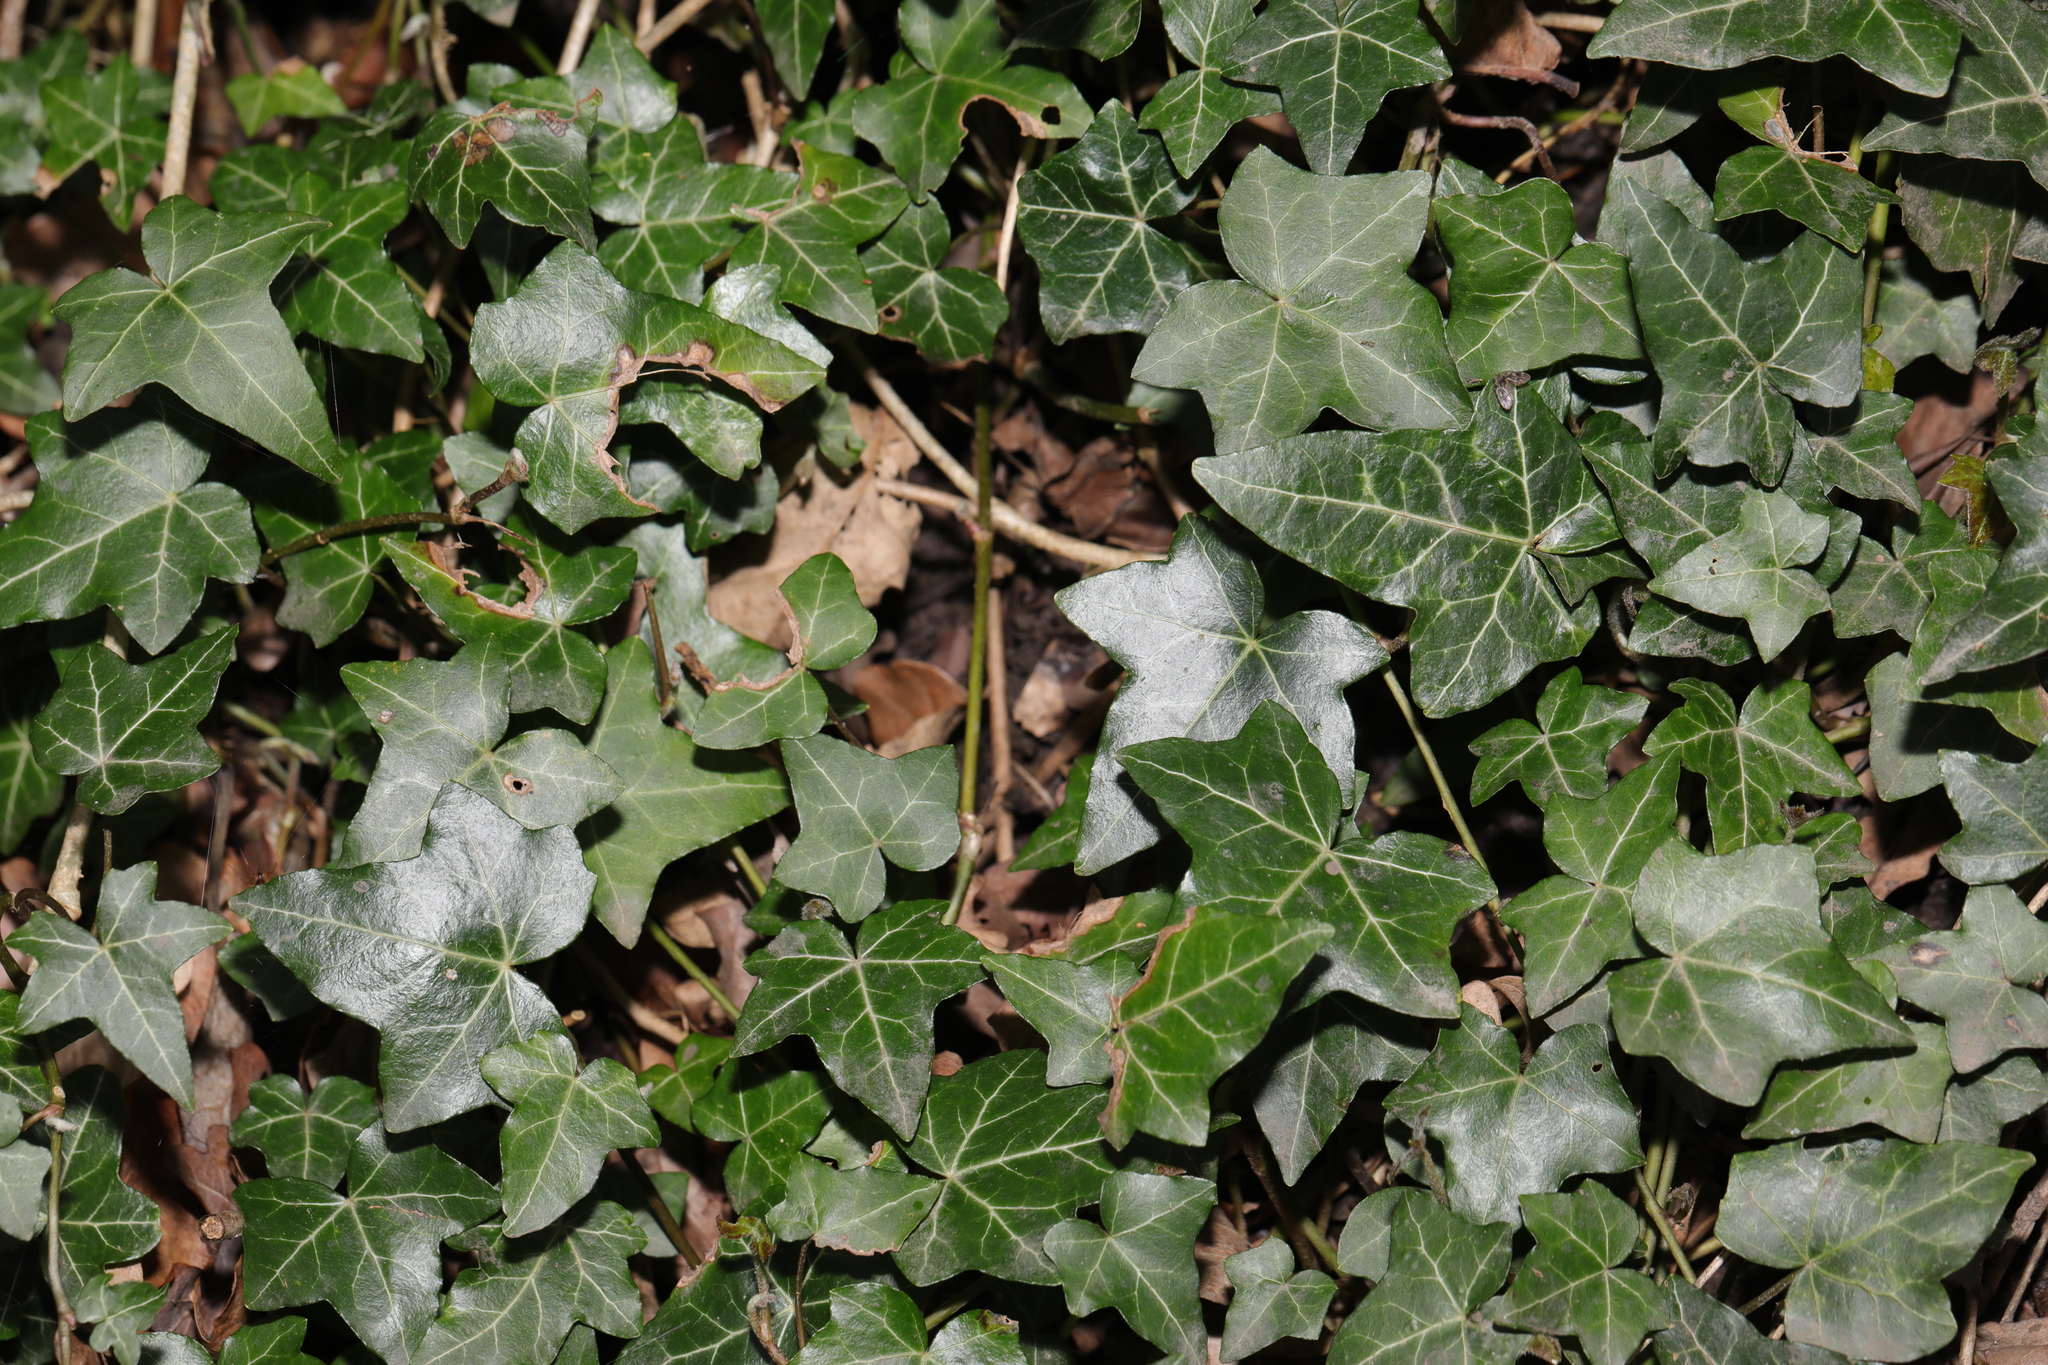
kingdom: Plantae
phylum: Tracheophyta
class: Magnoliopsida
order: Apiales
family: Araliaceae
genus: Hedera
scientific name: Hedera helix
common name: Ivy
